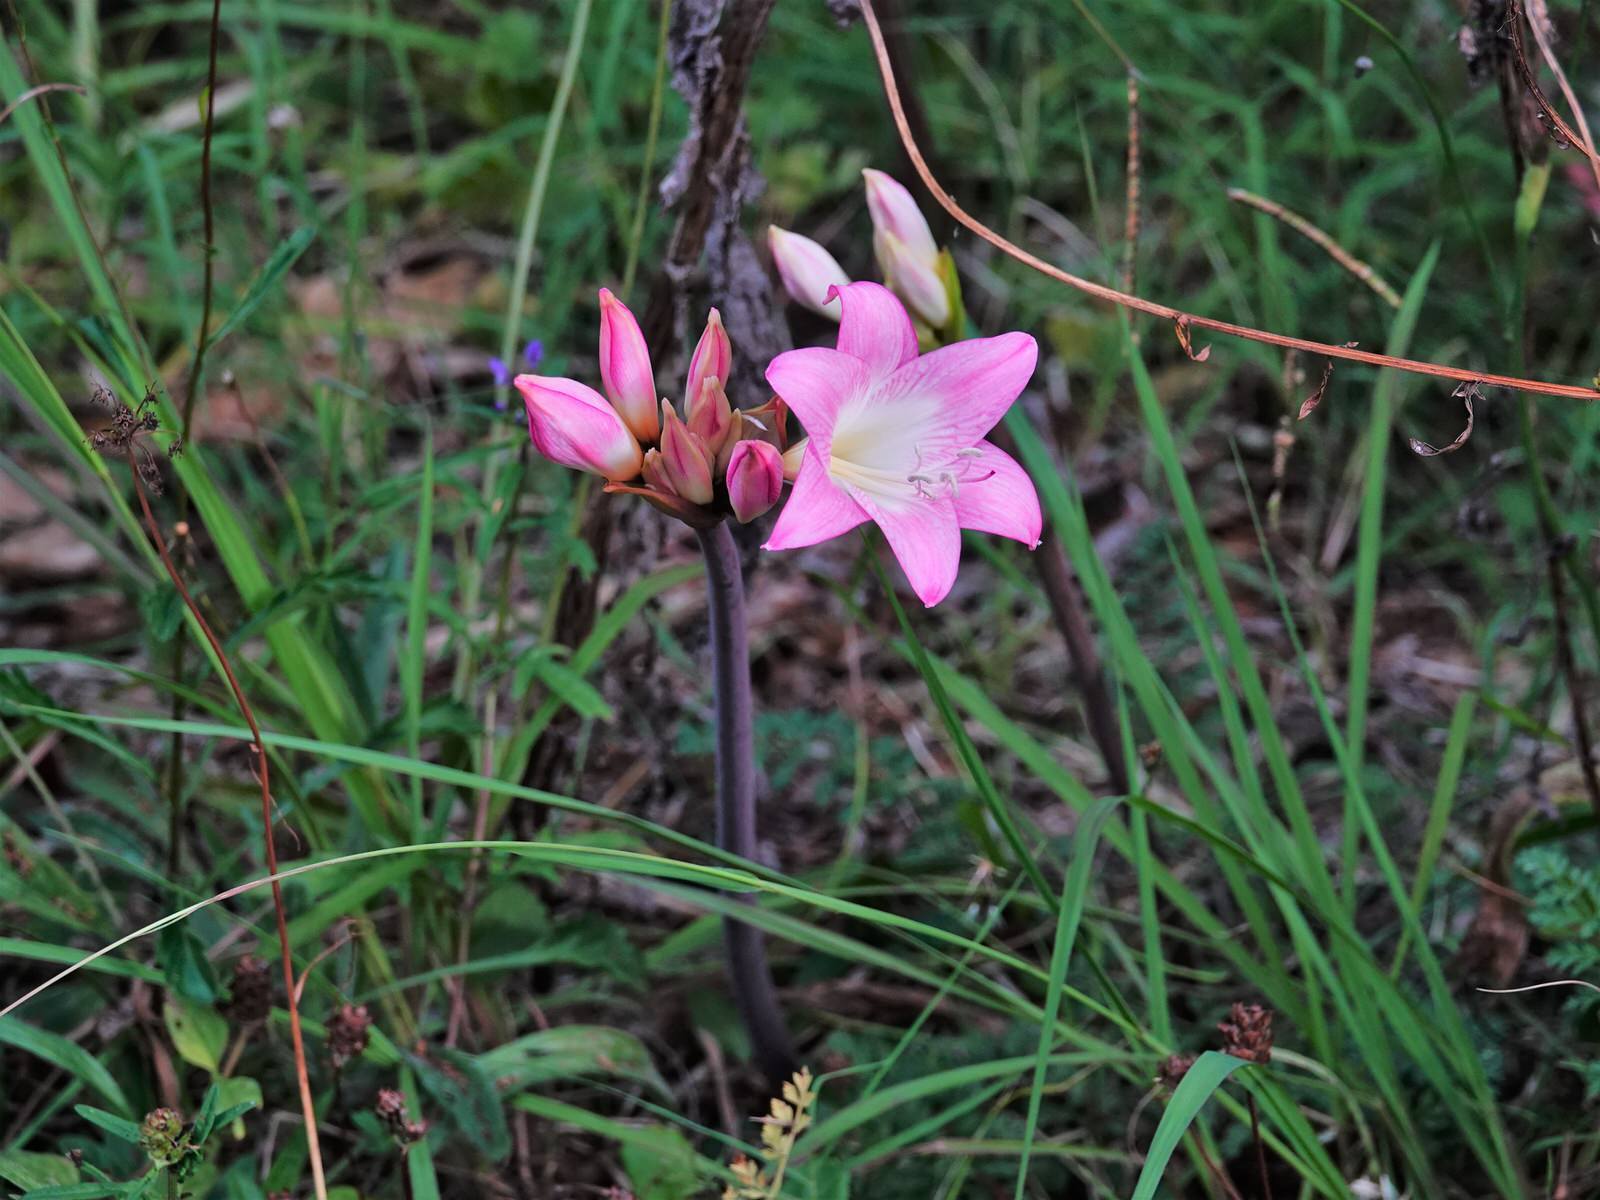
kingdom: Plantae
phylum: Tracheophyta
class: Liliopsida
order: Asparagales
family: Amaryllidaceae
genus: Amaryllis
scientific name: Amaryllis belladonna
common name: Jersey lily
